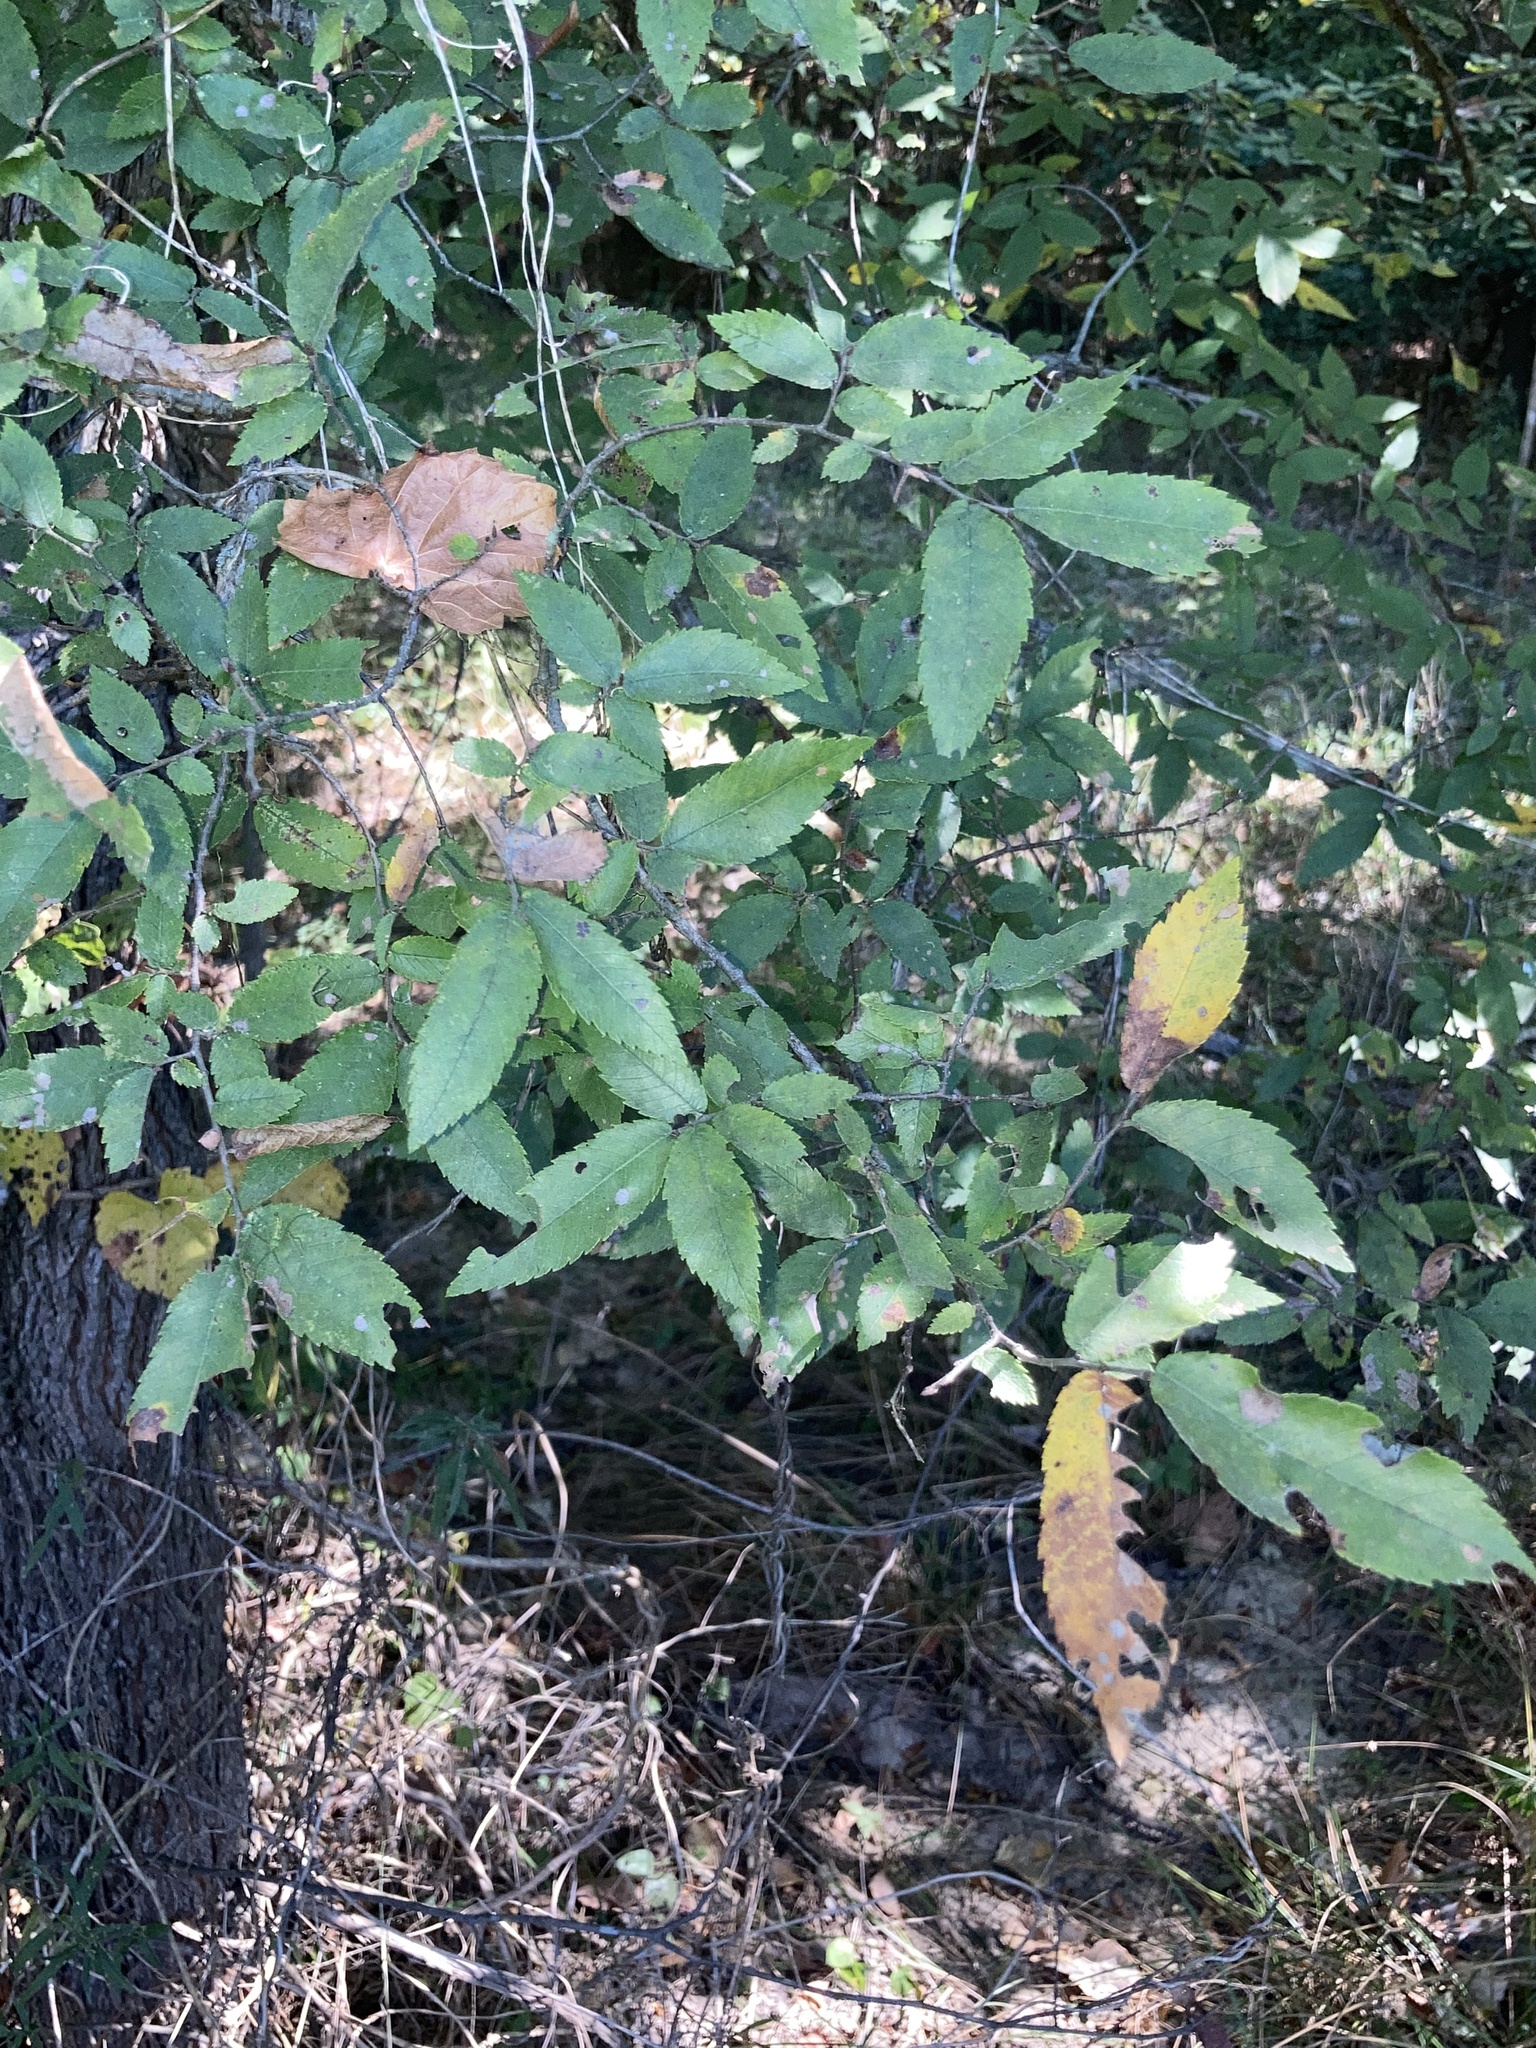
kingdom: Plantae
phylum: Tracheophyta
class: Magnoliopsida
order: Rosales
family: Ulmaceae
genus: Ulmus
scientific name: Ulmus alata
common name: Winged elm
